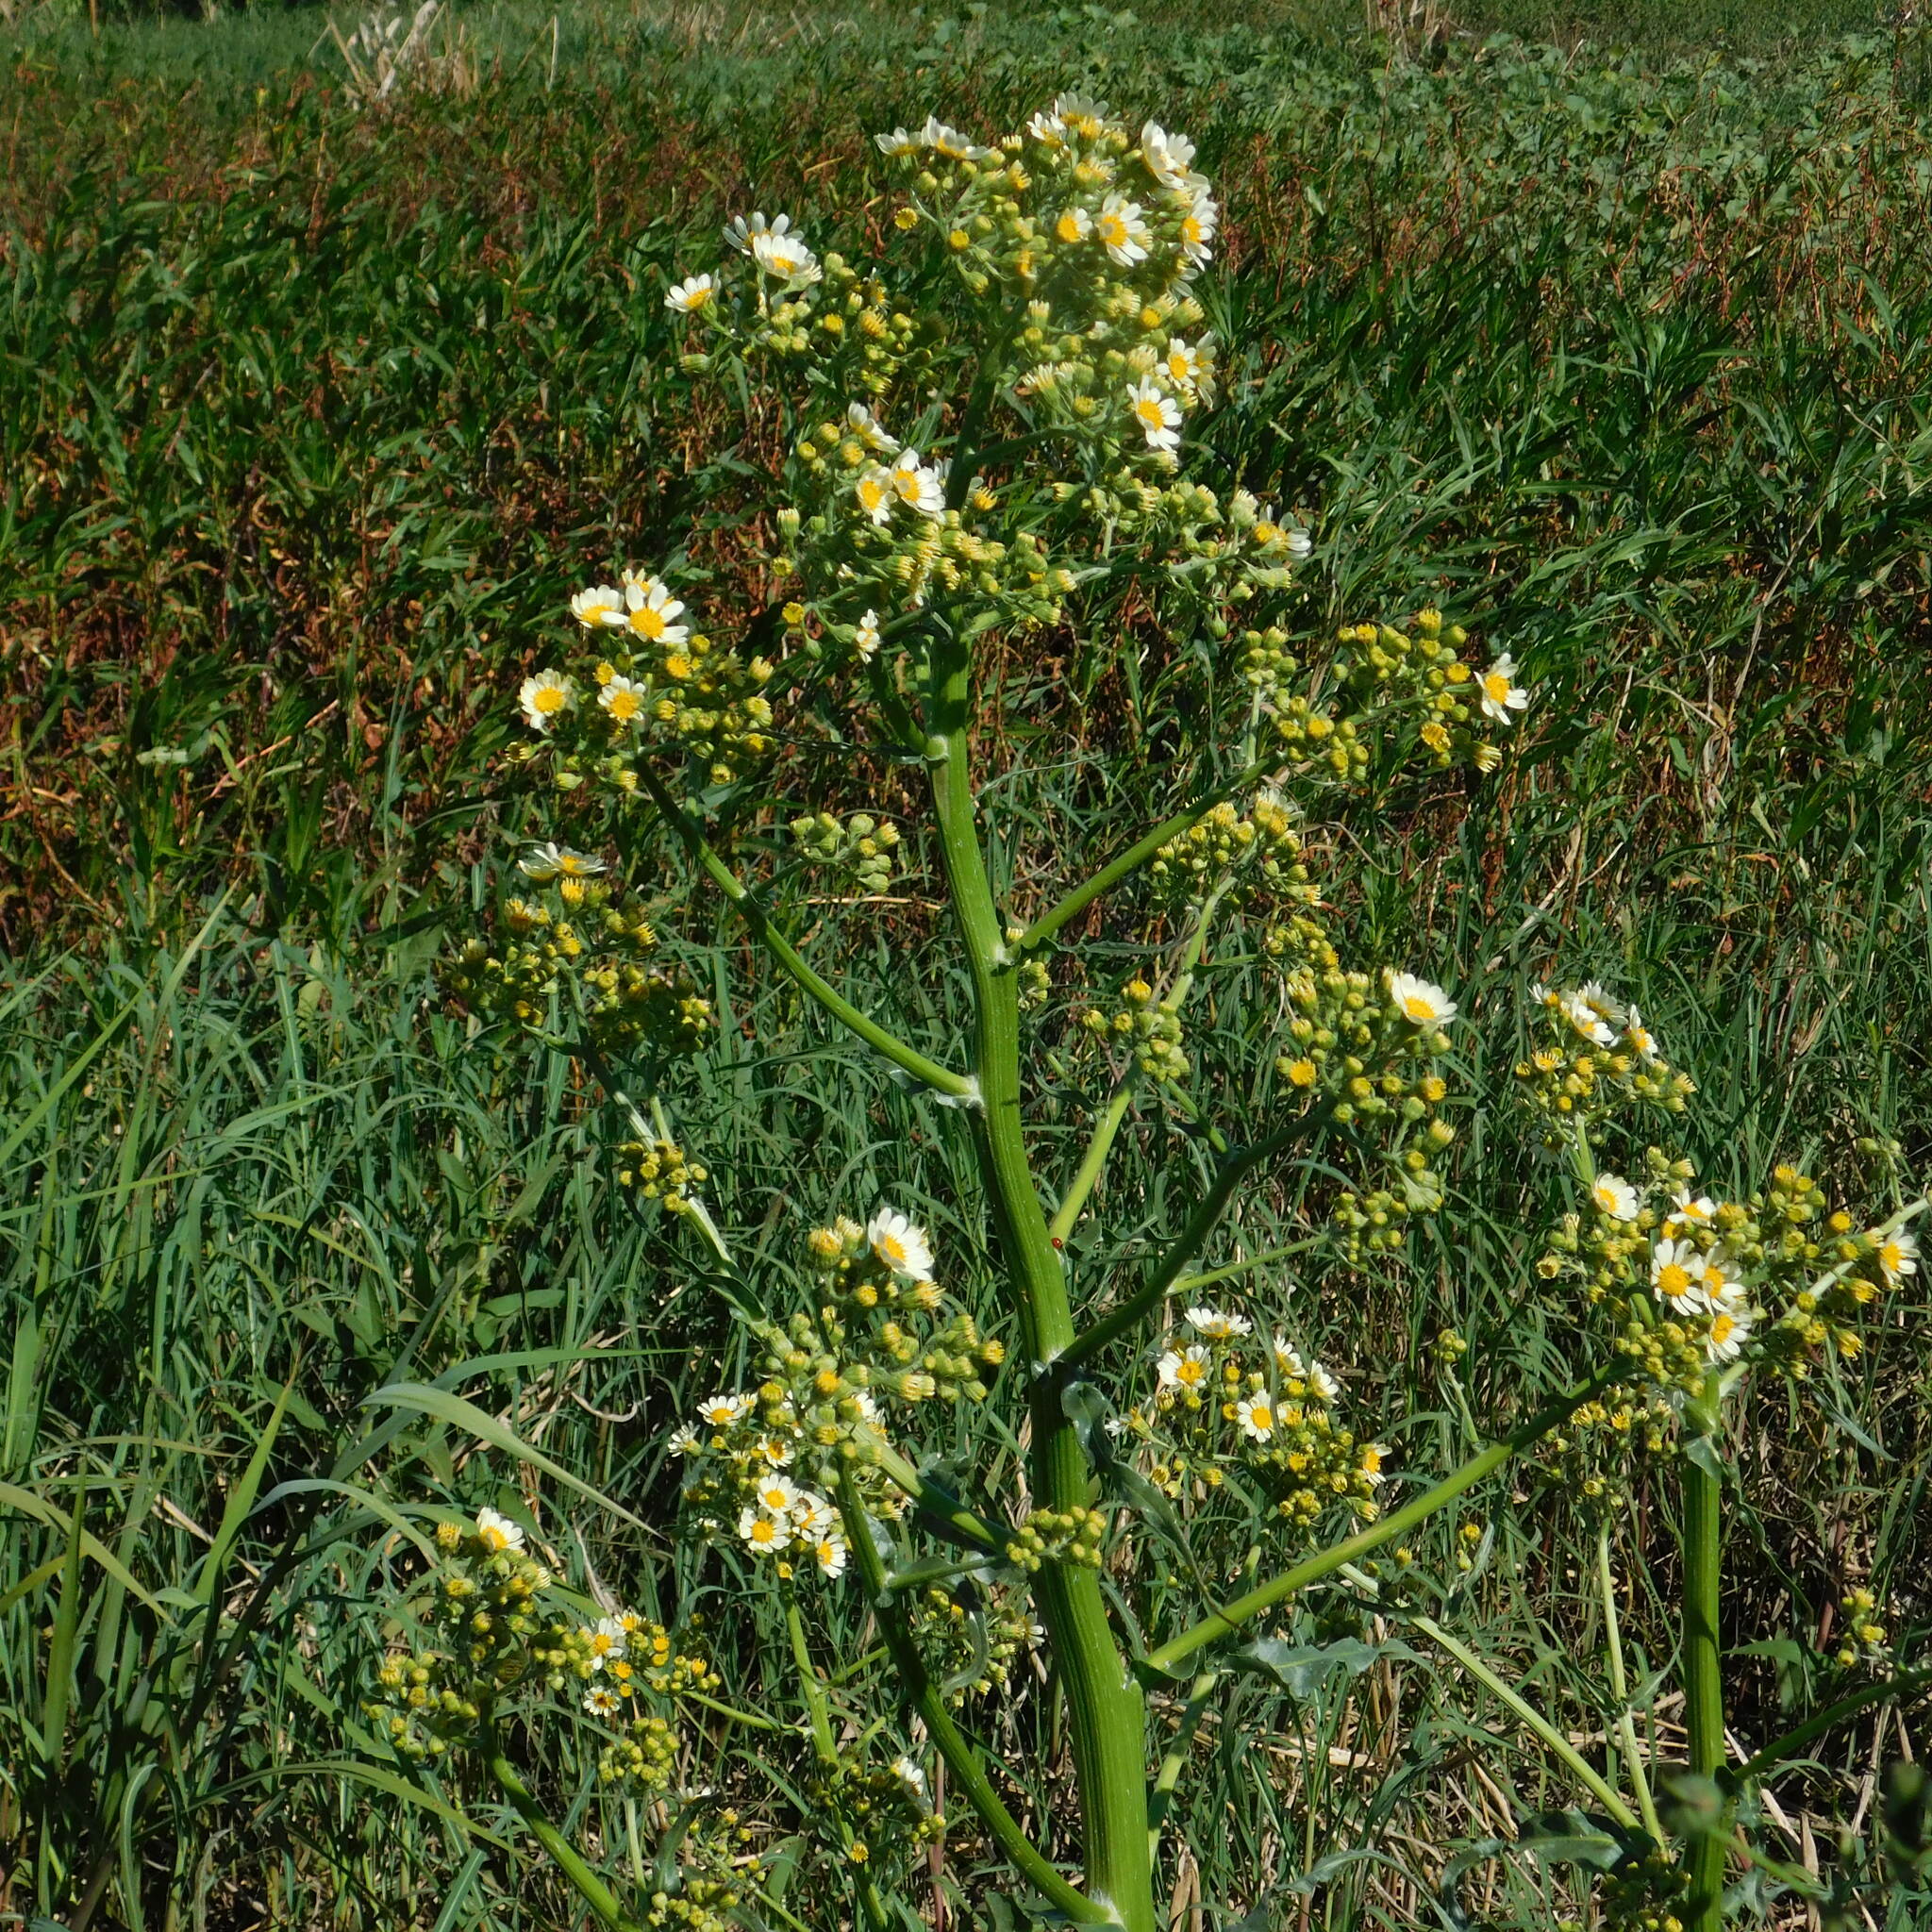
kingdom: Plantae
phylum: Tracheophyta
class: Magnoliopsida
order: Asterales
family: Asteraceae
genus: Senecio
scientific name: Senecio bonariensis
